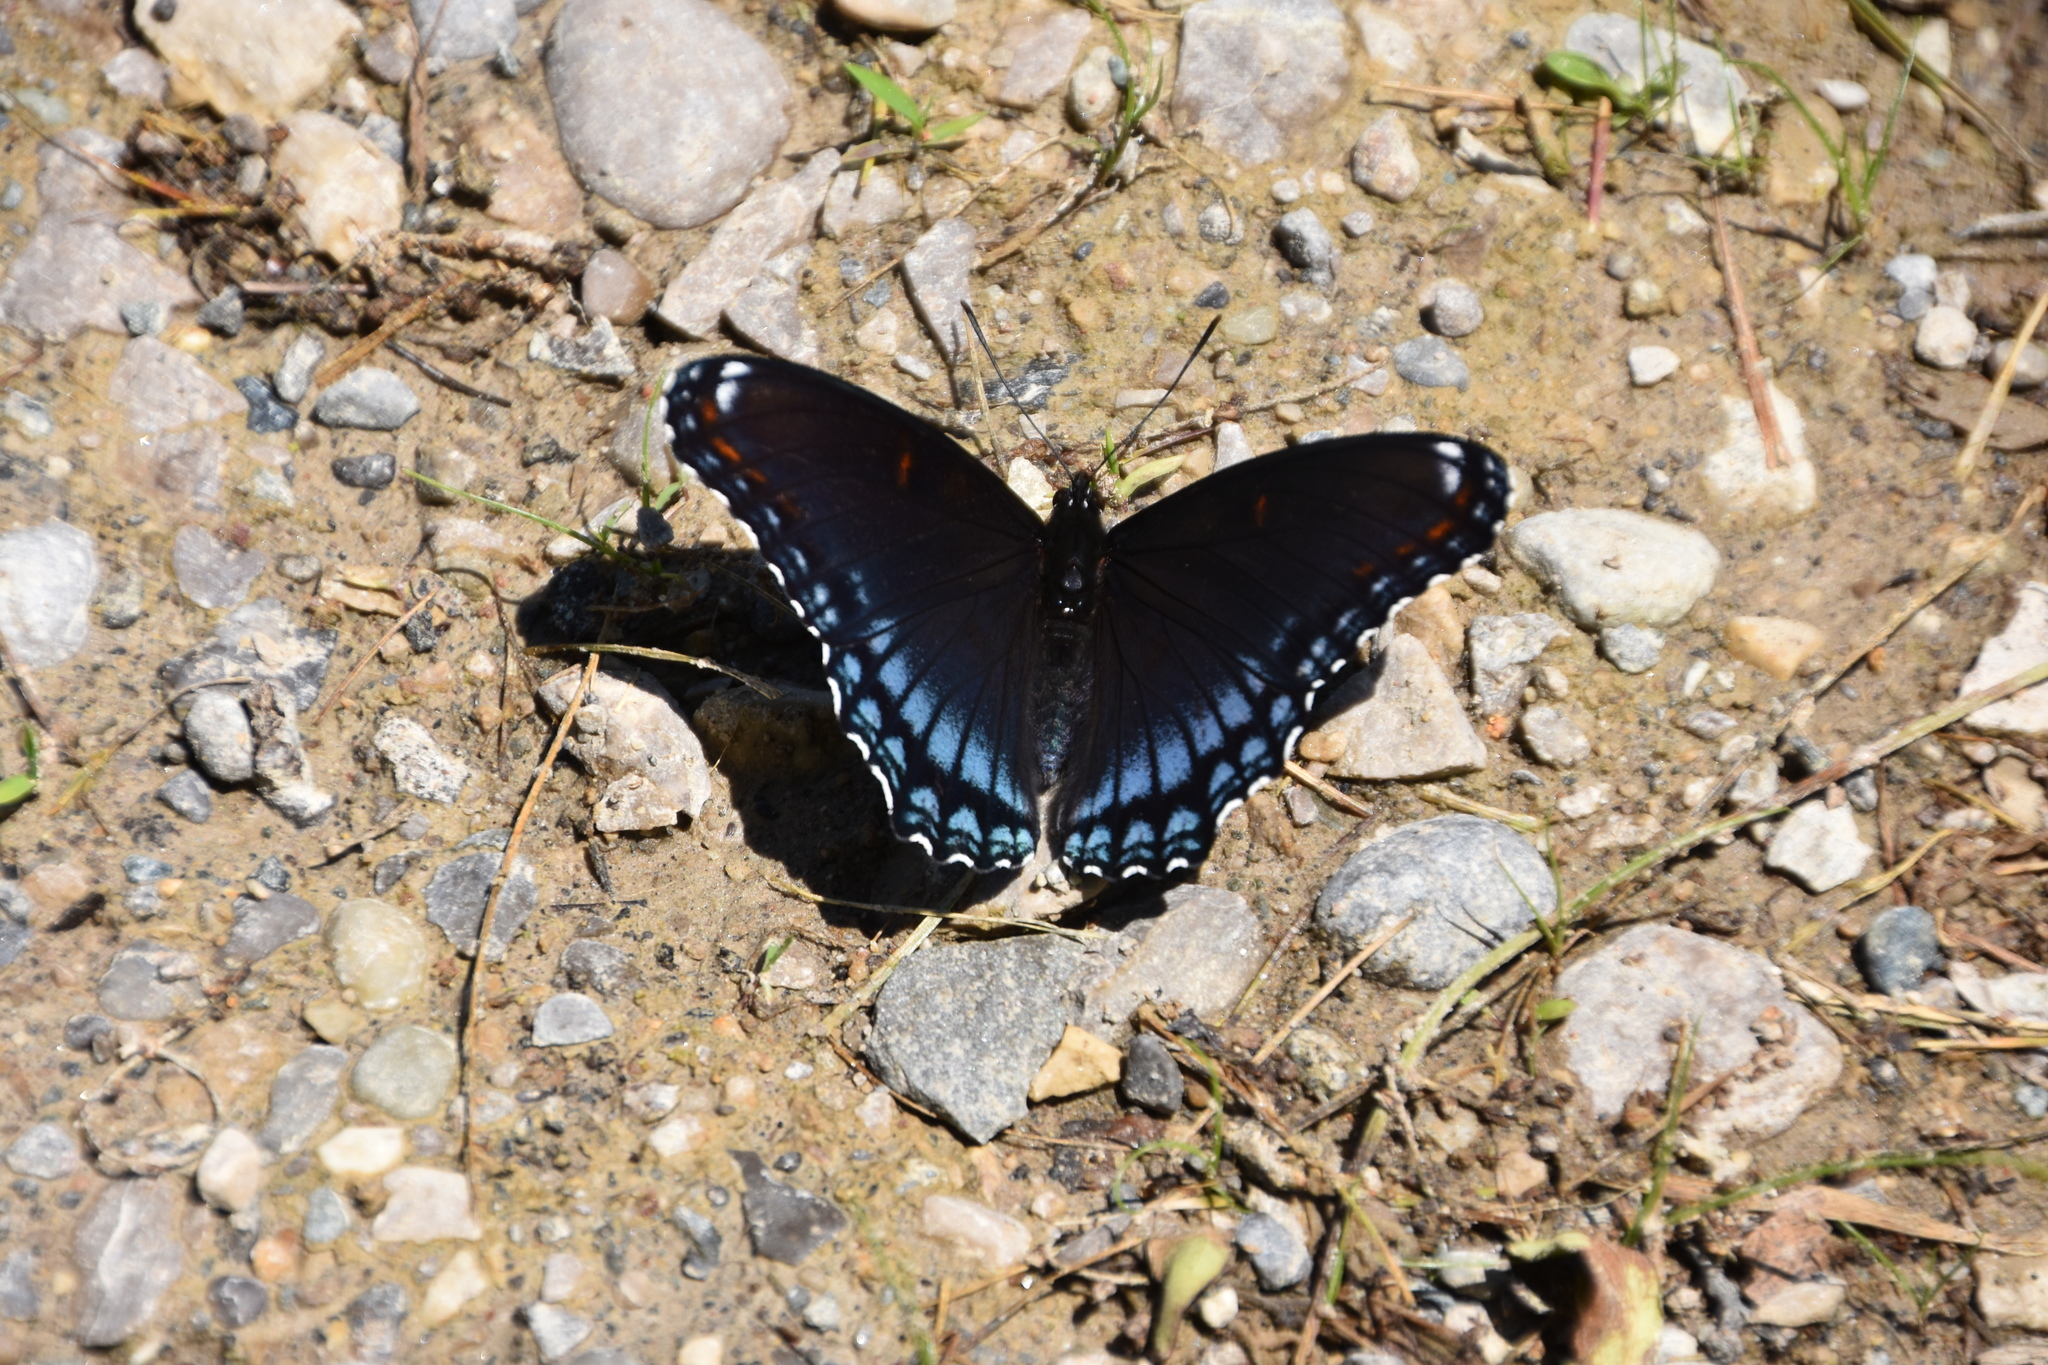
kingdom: Animalia
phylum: Arthropoda
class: Insecta
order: Lepidoptera
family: Nymphalidae
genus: Limenitis
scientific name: Limenitis astyanax
